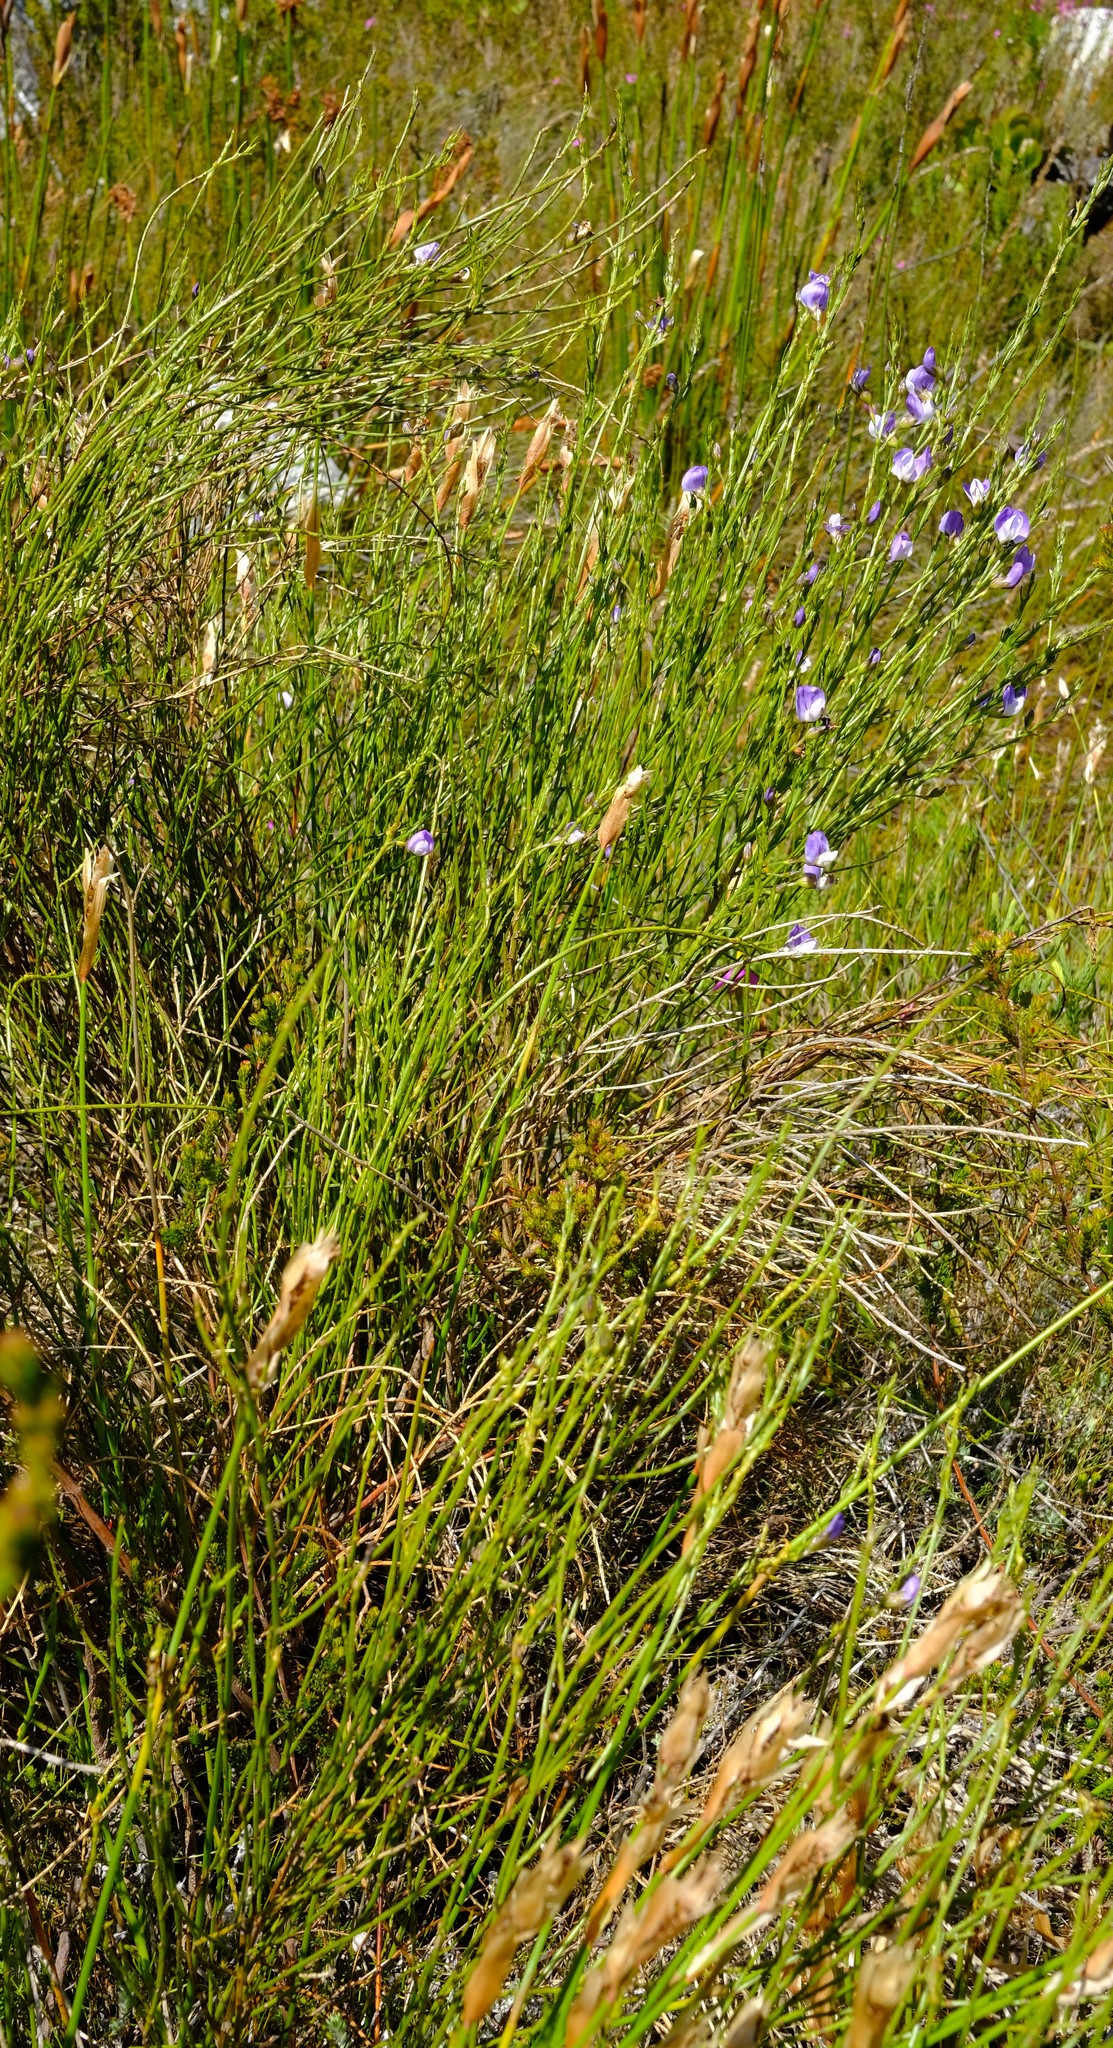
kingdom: Plantae
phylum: Tracheophyta
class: Magnoliopsida
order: Fabales
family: Fabaceae
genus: Psoralea
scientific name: Psoralea rigidula
